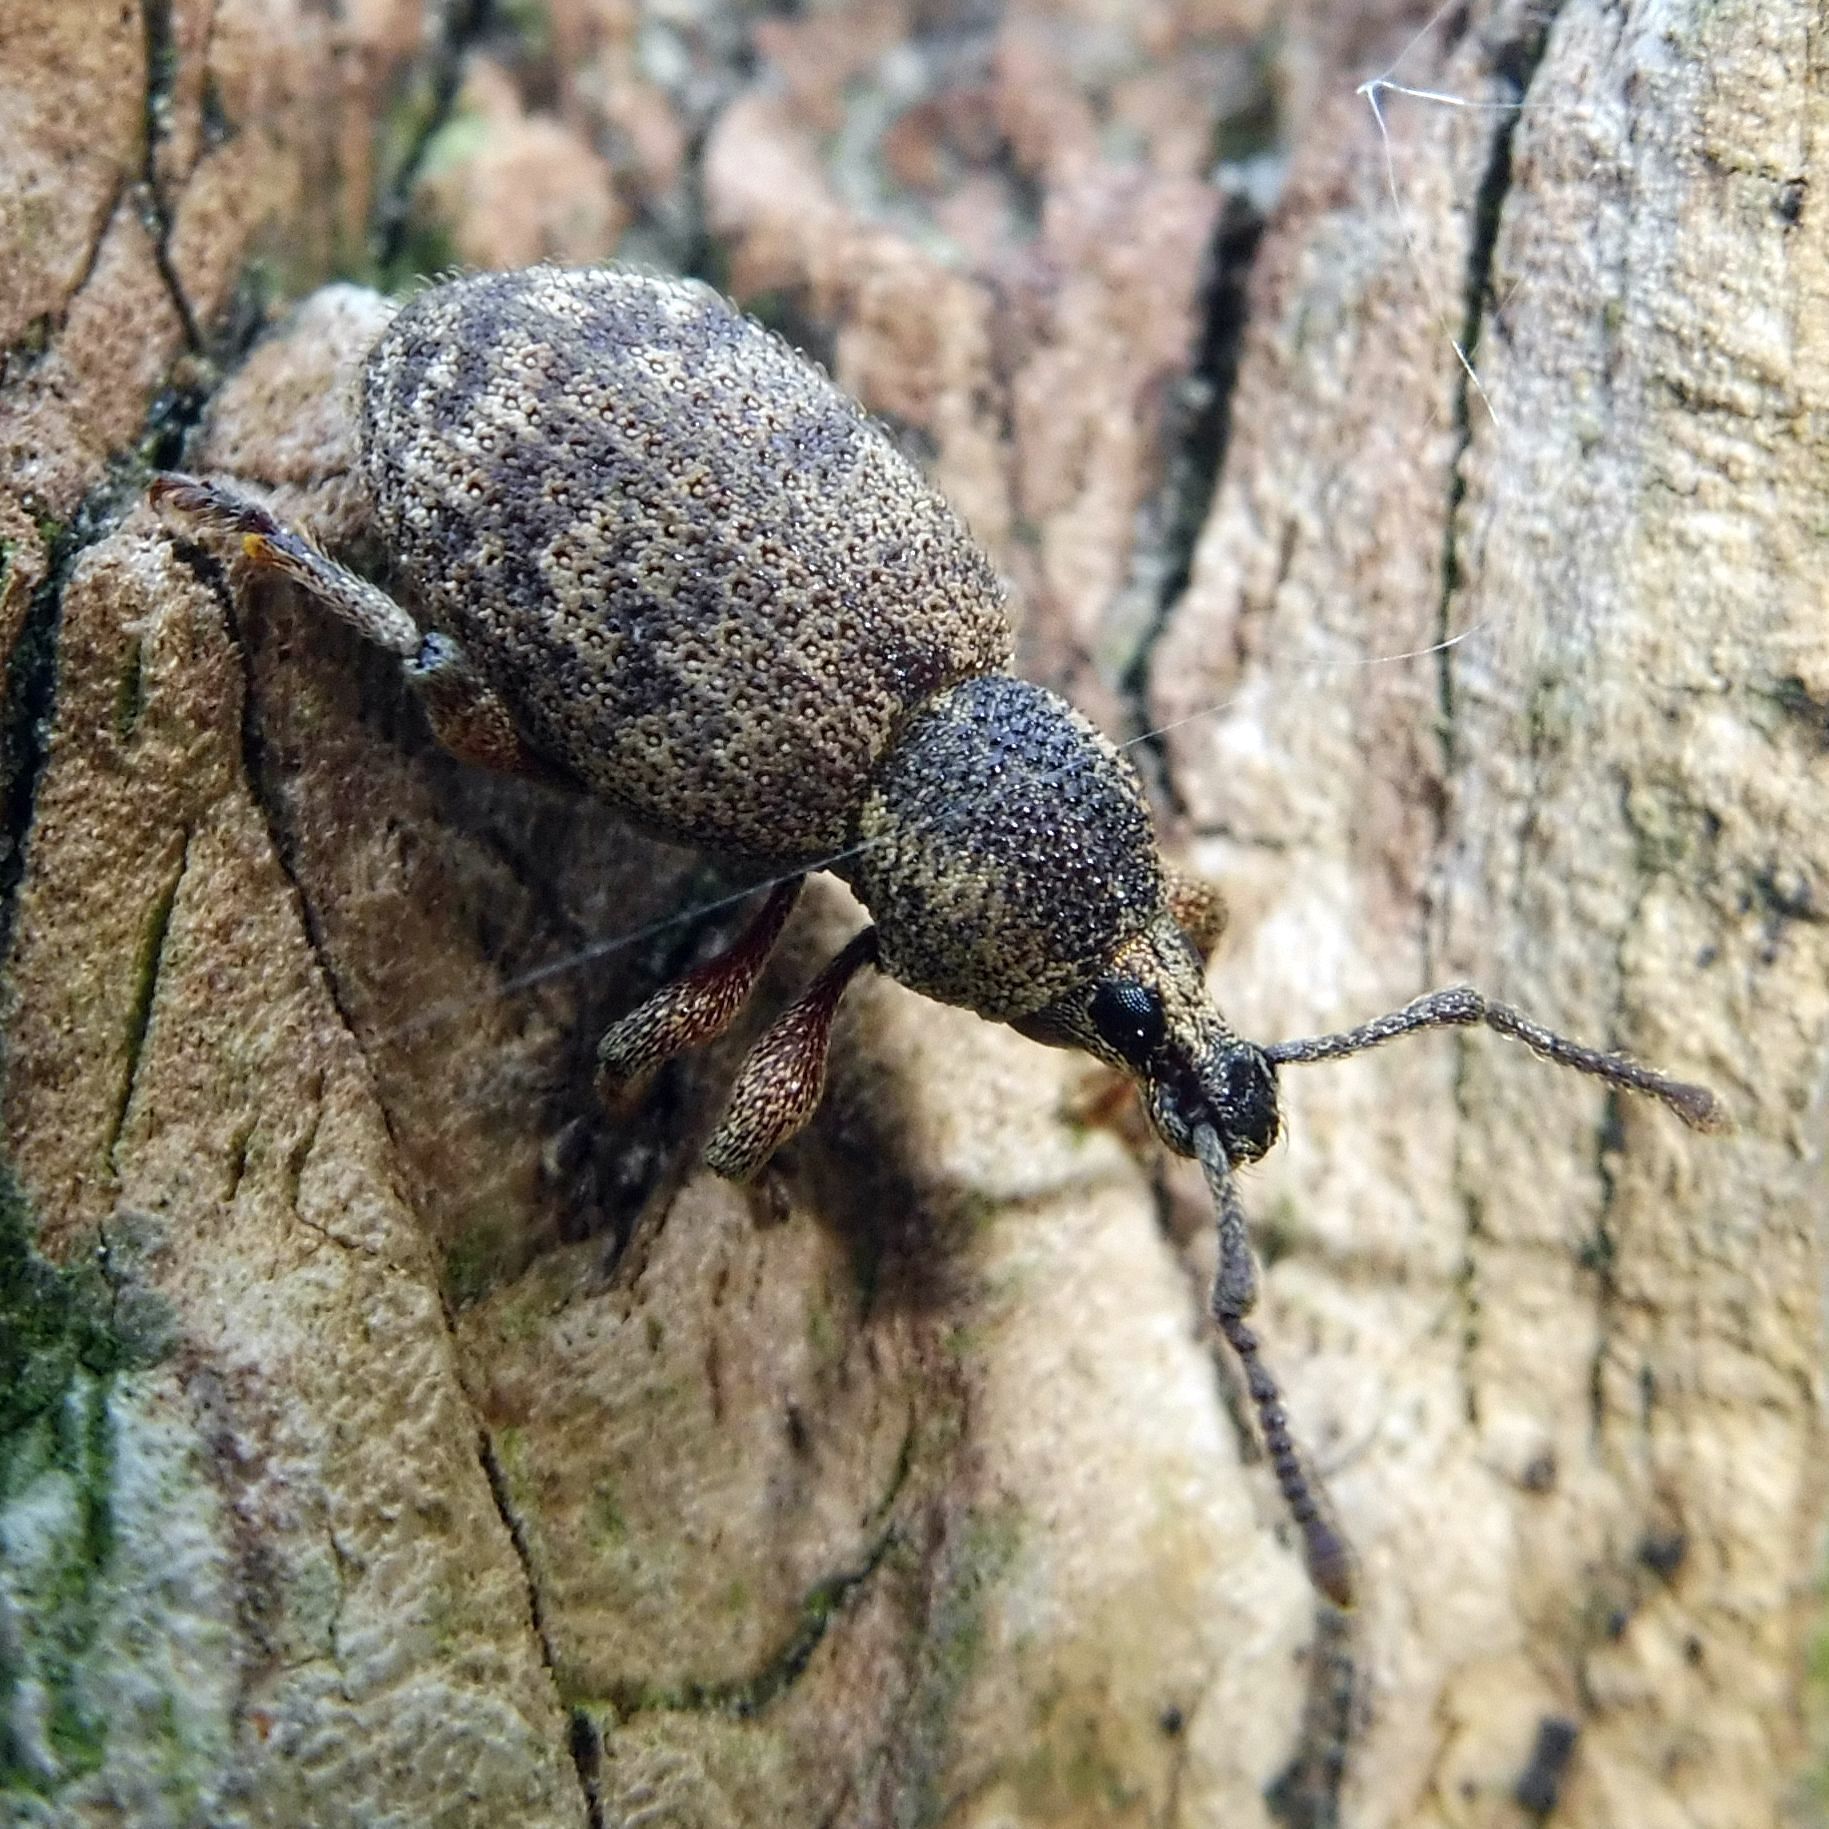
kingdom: Animalia
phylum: Arthropoda
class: Insecta
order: Coleoptera
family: Curculionidae
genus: Otiorhynchus
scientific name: Otiorhynchus singularis
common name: Clay-coloured weevil
